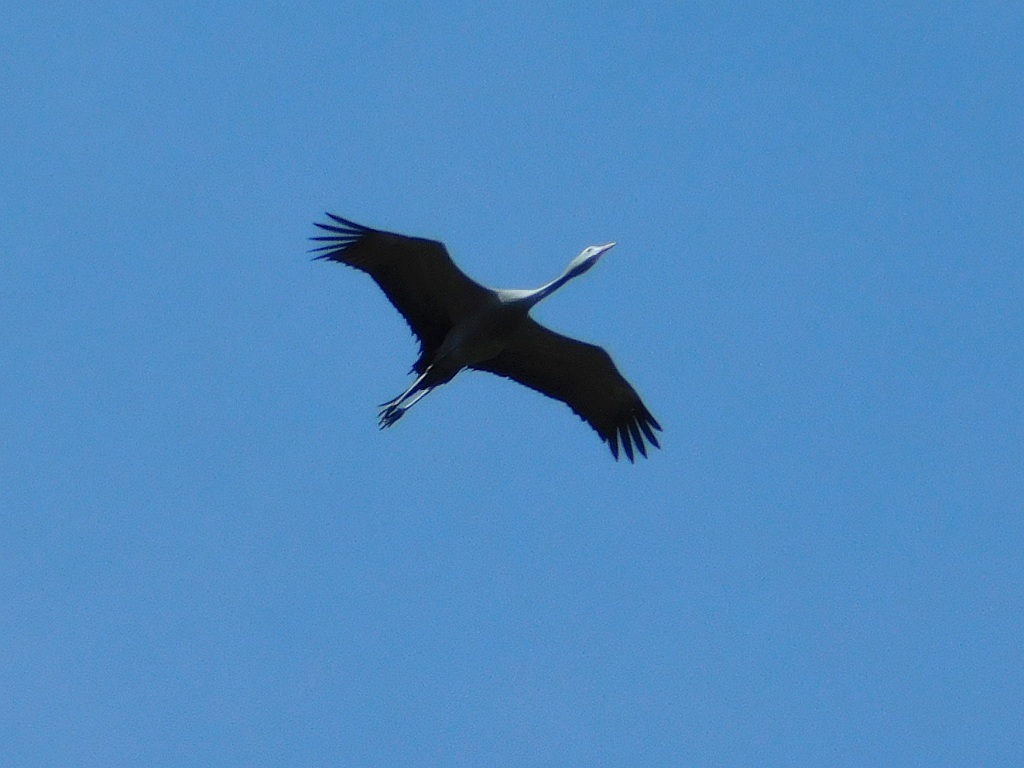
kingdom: Animalia
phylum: Chordata
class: Aves
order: Gruiformes
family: Gruidae
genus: Anthropoides
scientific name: Anthropoides paradiseus
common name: Blue crane
